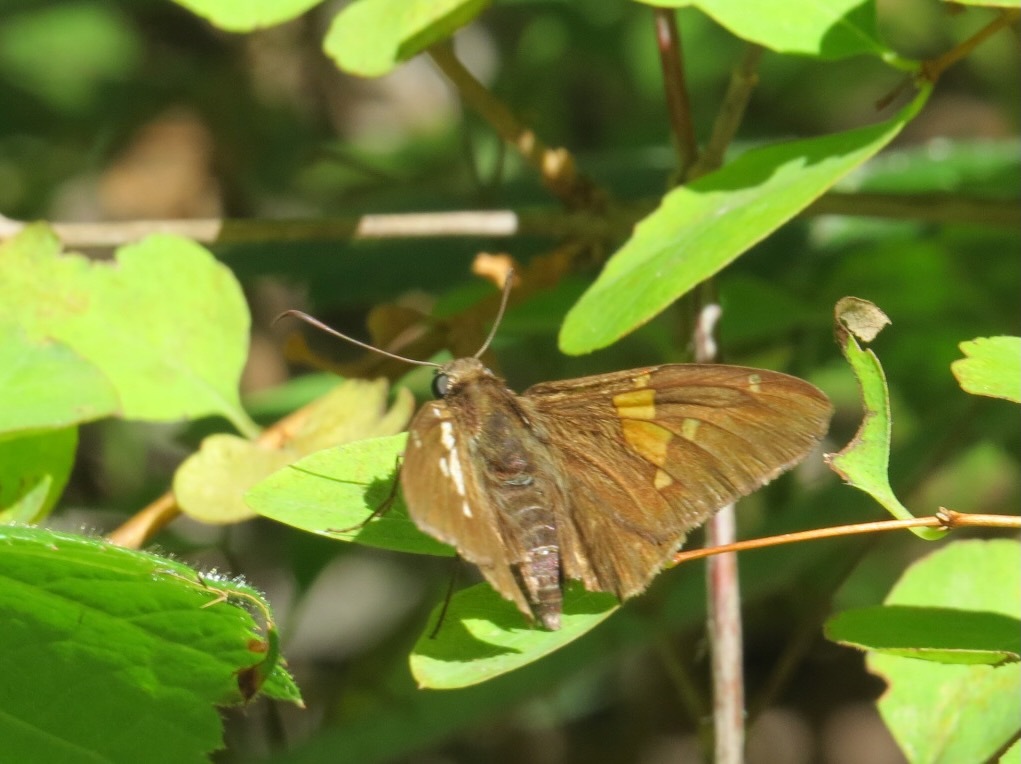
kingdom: Animalia
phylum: Arthropoda
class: Insecta
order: Lepidoptera
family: Hesperiidae
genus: Epargyreus
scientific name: Epargyreus clarus
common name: Silver-spotted skipper
